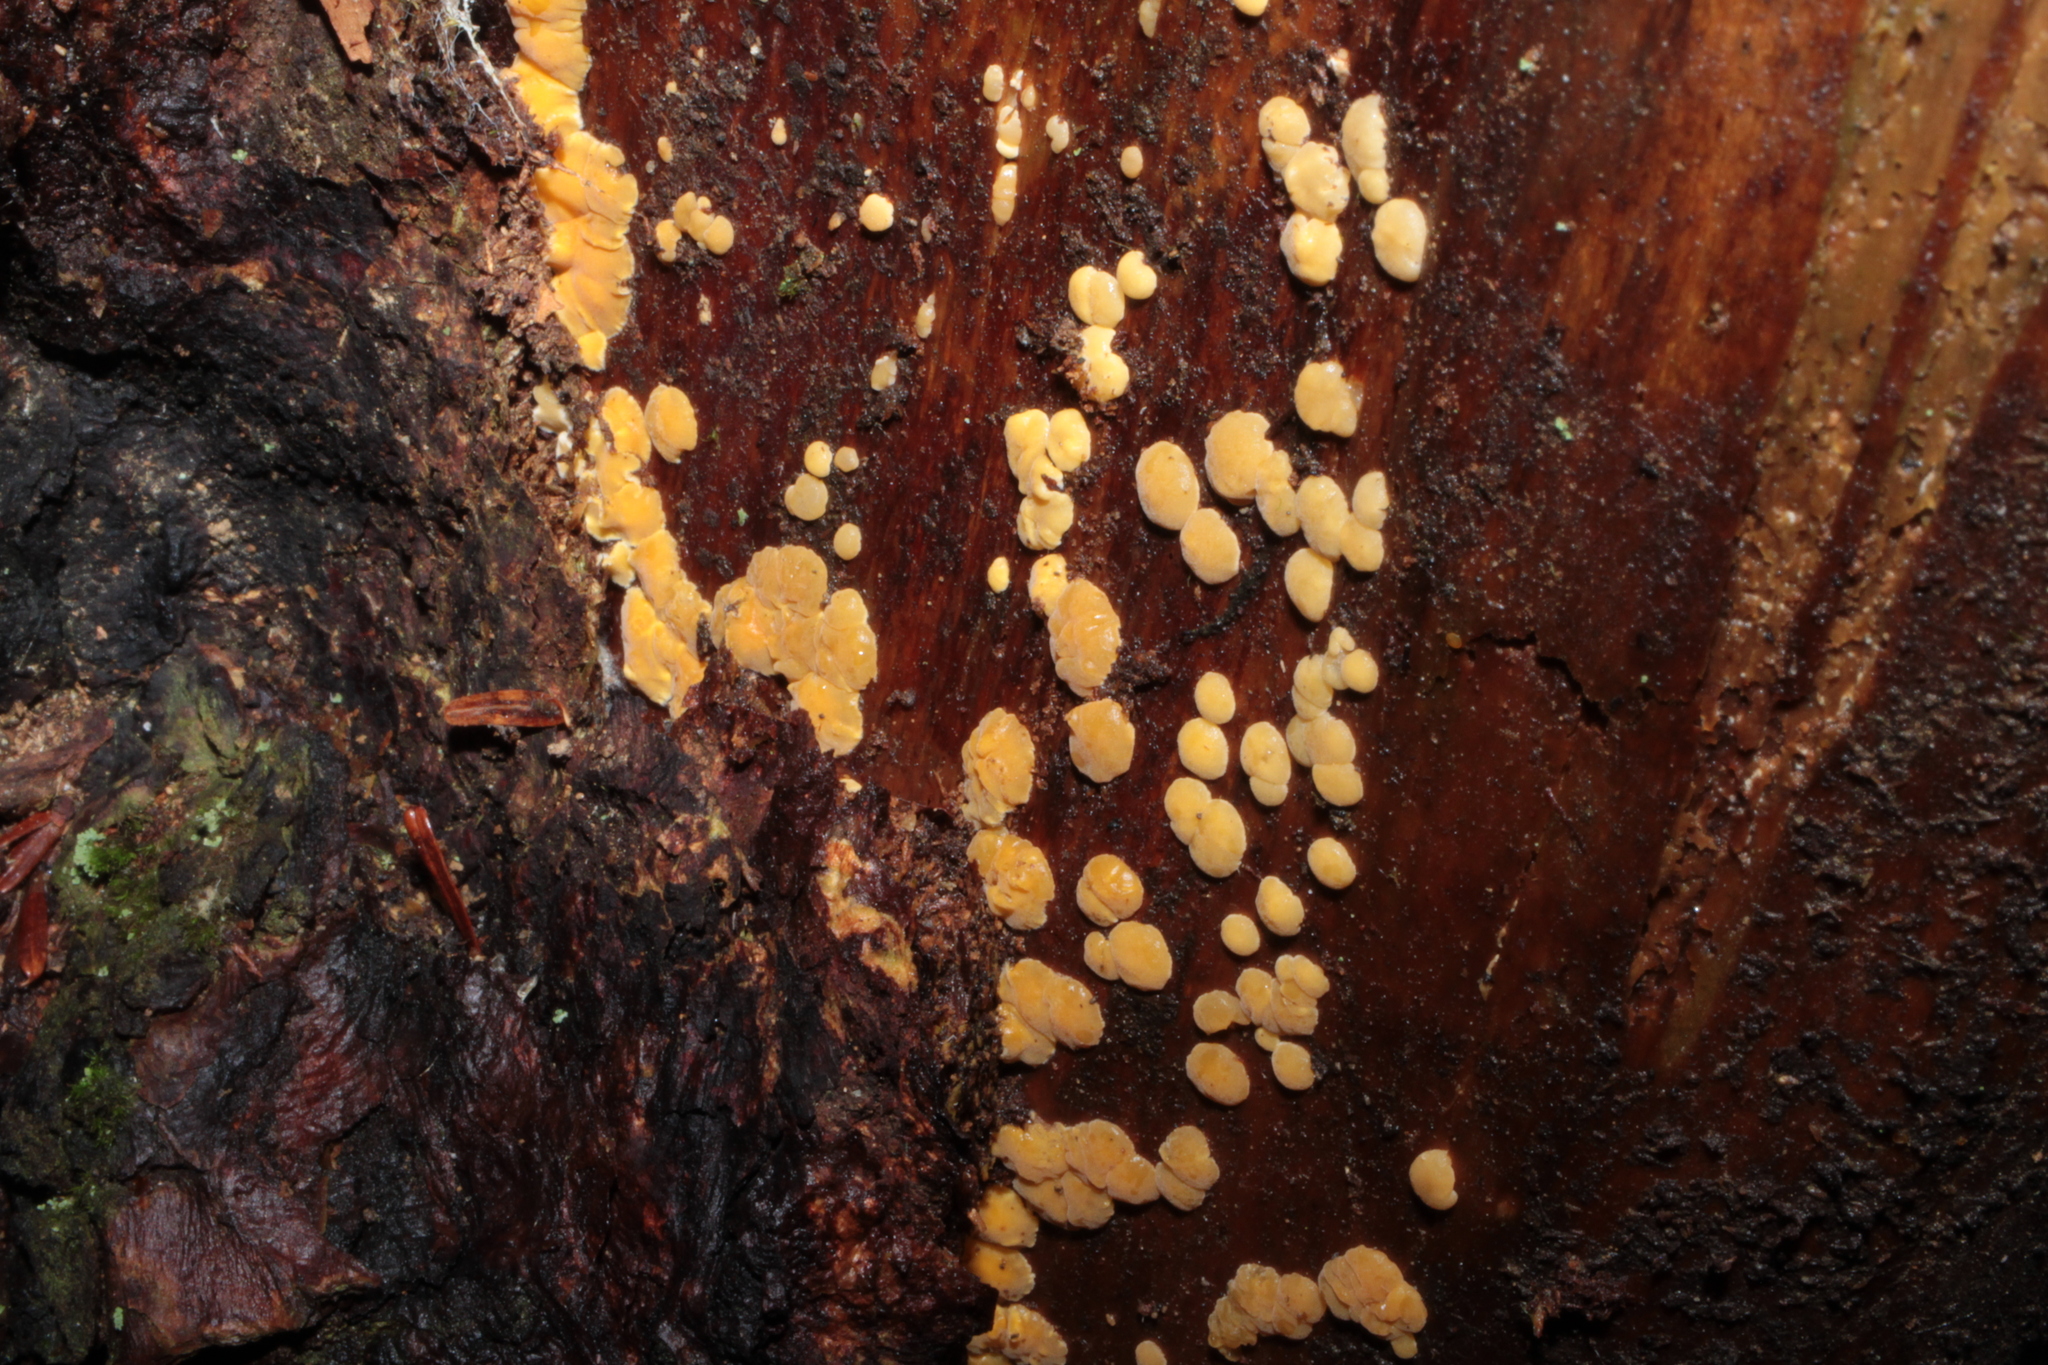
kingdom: Fungi
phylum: Basidiomycota
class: Dacrymycetes
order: Dacrymycetales
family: Dacrymycetaceae
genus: Dacrymyces
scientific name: Dacrymyces corticioides
